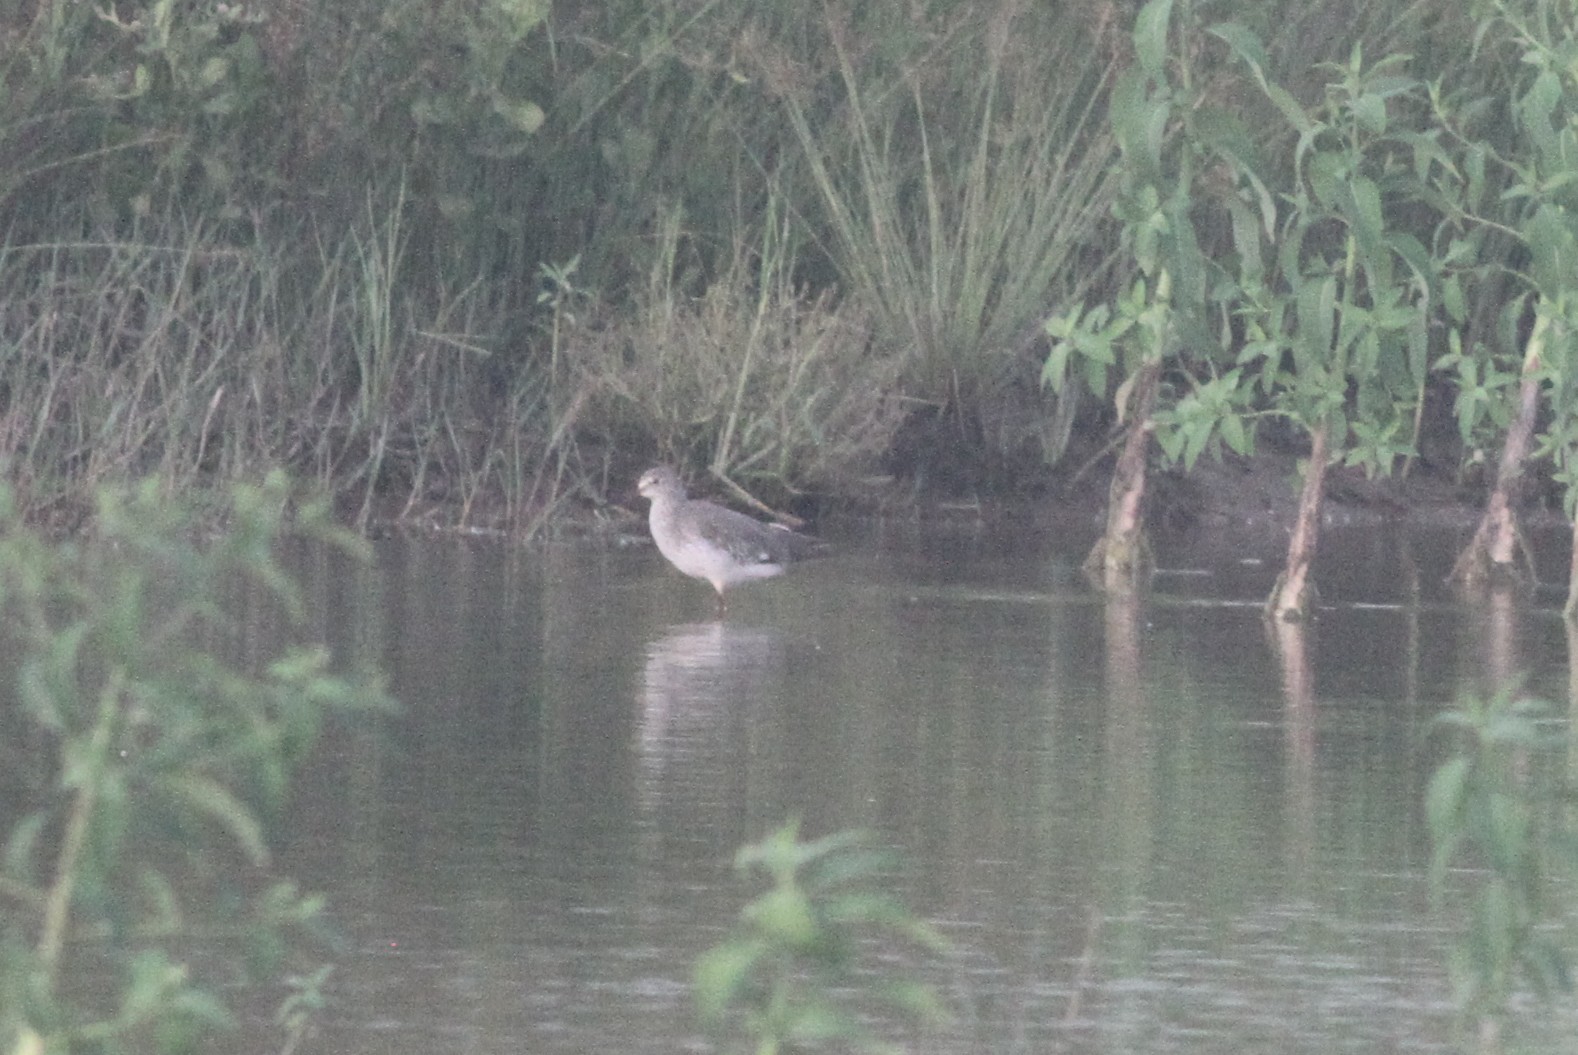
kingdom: Animalia
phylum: Chordata
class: Aves
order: Charadriiformes
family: Scolopacidae
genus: Tringa
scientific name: Tringa totanus
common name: Common redshank
